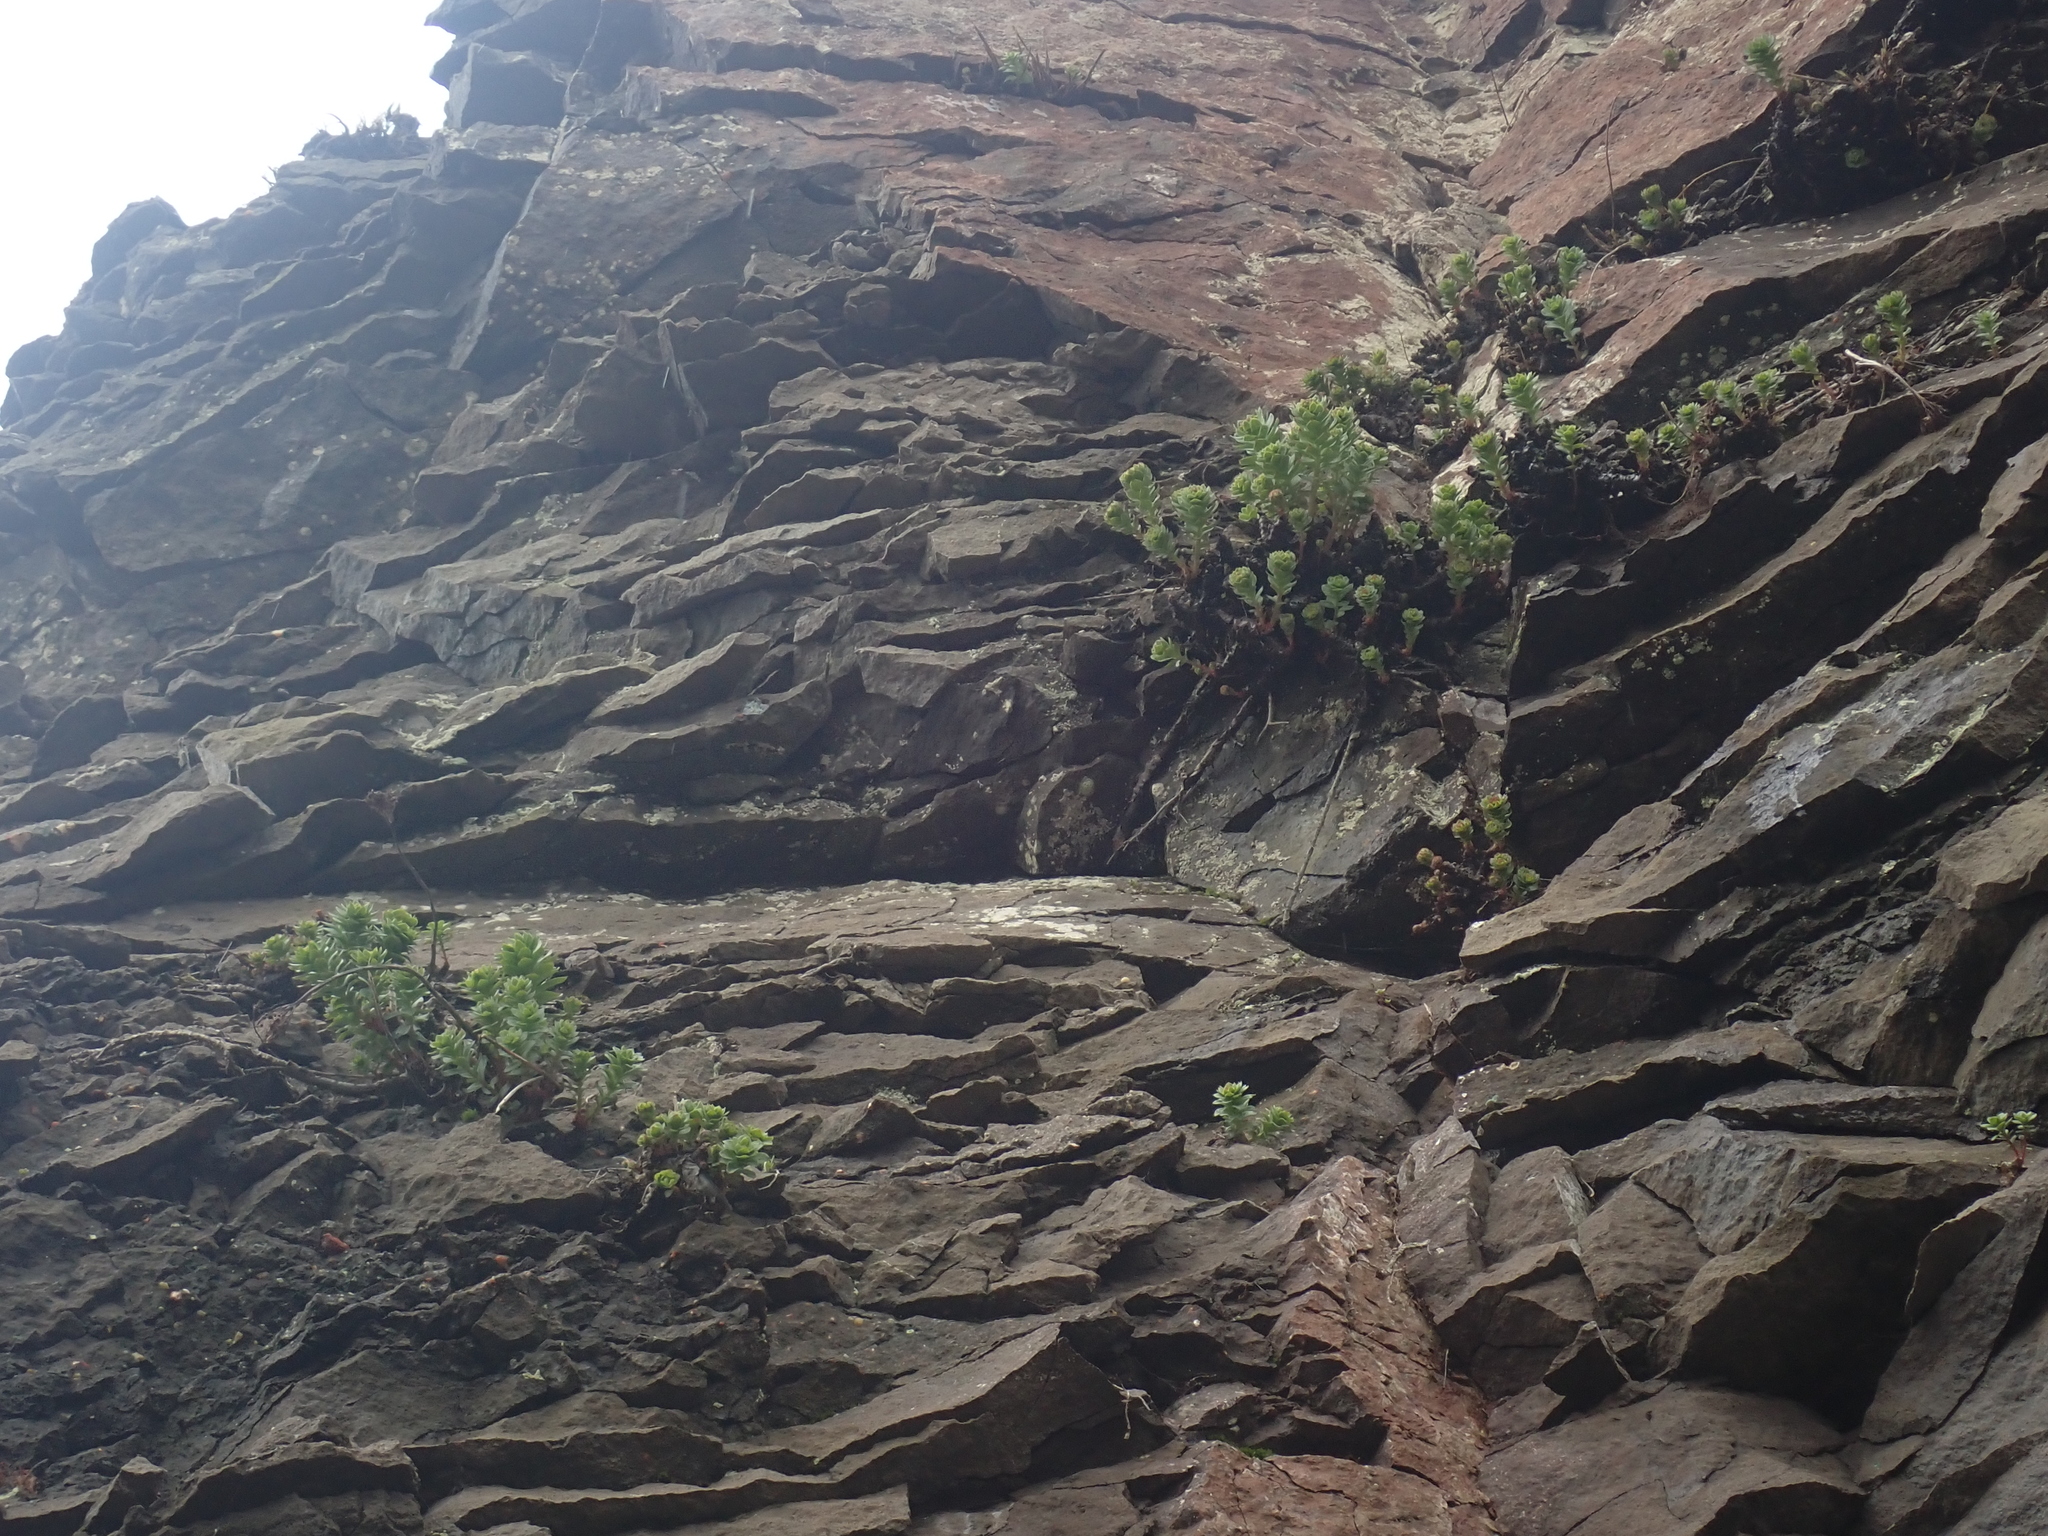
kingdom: Plantae
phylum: Tracheophyta
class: Magnoliopsida
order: Saxifragales
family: Crassulaceae
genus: Rhodiola
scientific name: Rhodiola rosea
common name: Roseroot
